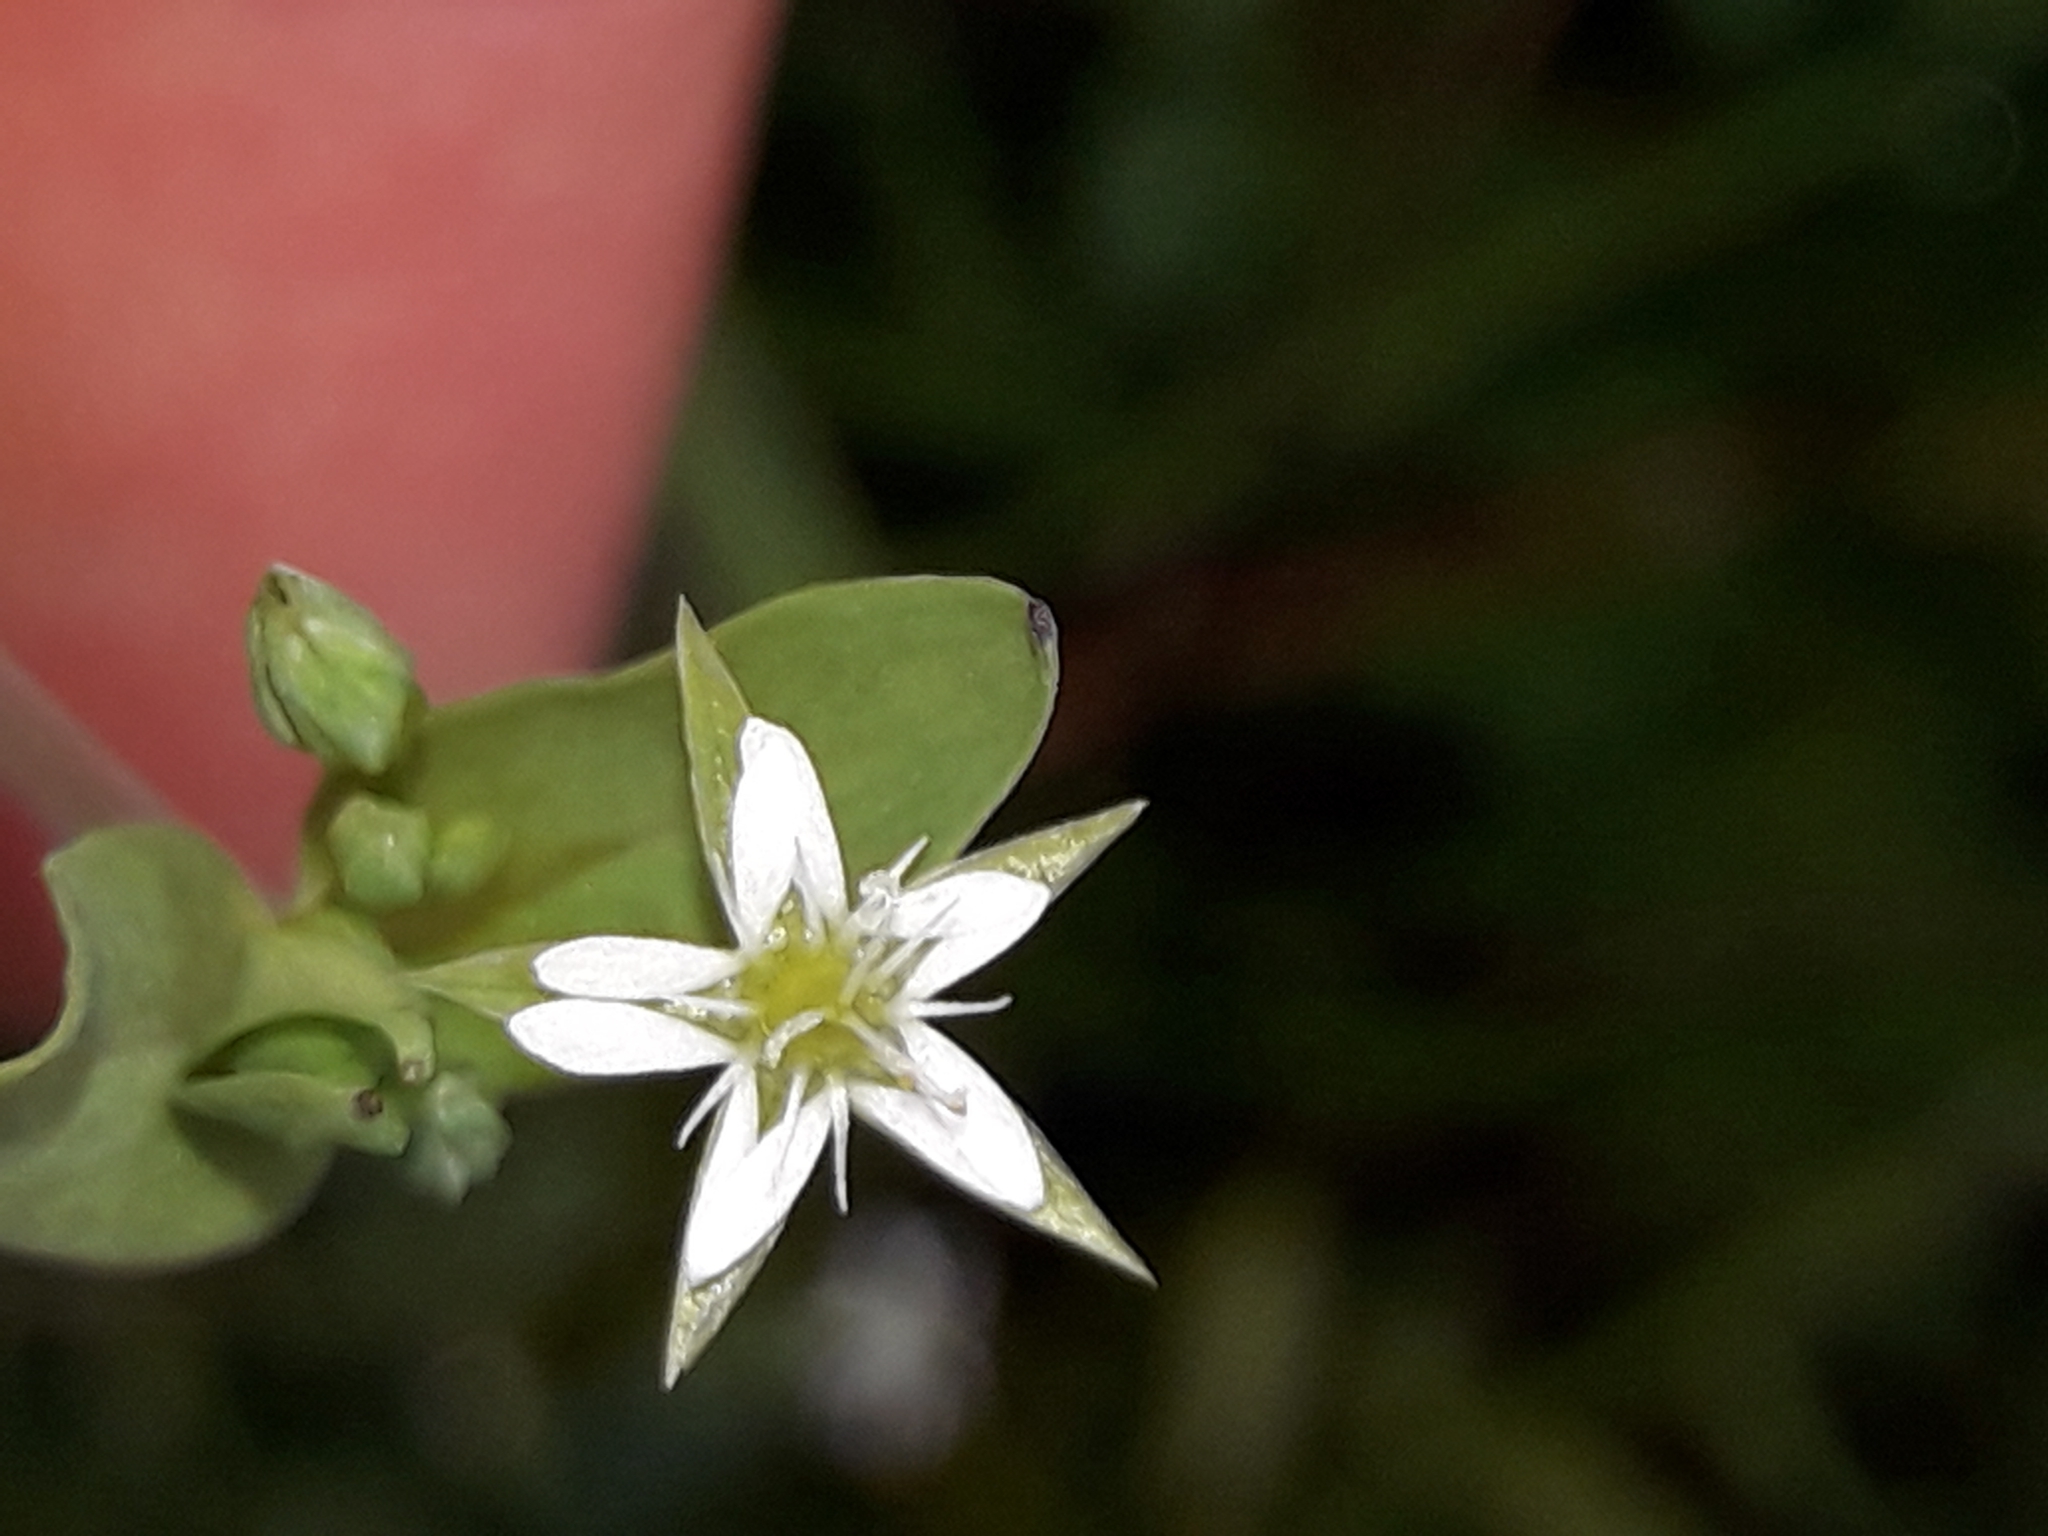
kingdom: Plantae
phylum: Tracheophyta
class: Magnoliopsida
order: Caryophyllales
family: Caryophyllaceae
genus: Stellaria
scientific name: Stellaria alsine
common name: Bog stitchwort
